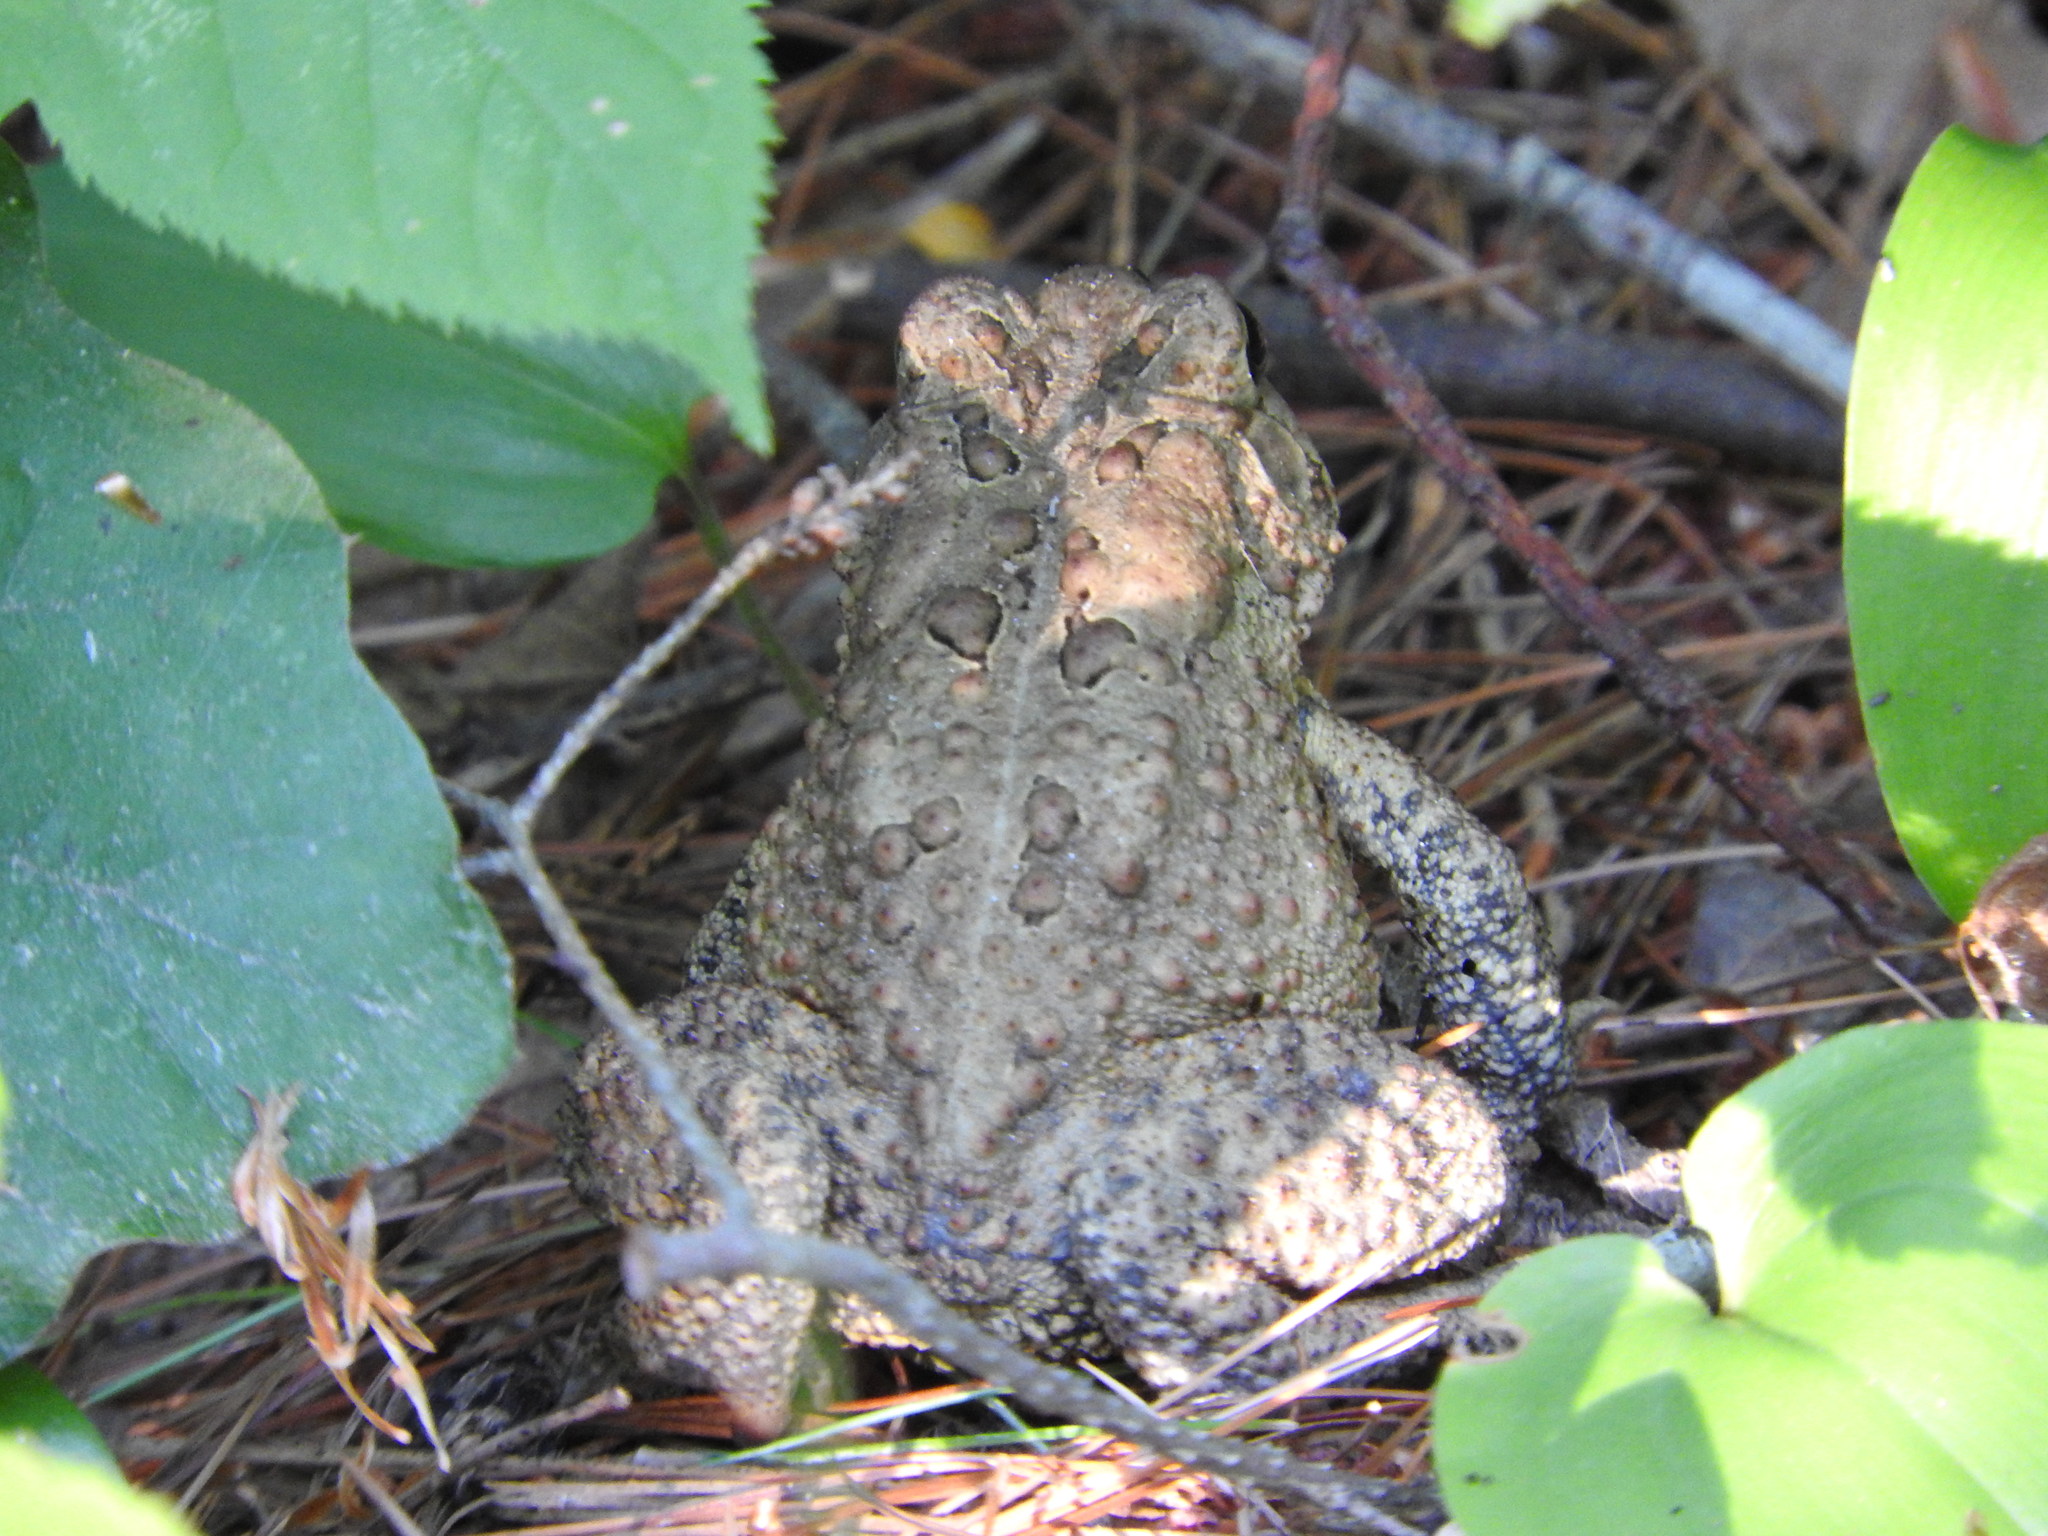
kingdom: Animalia
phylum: Chordata
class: Amphibia
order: Anura
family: Bufonidae
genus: Anaxyrus
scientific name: Anaxyrus americanus
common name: American toad
